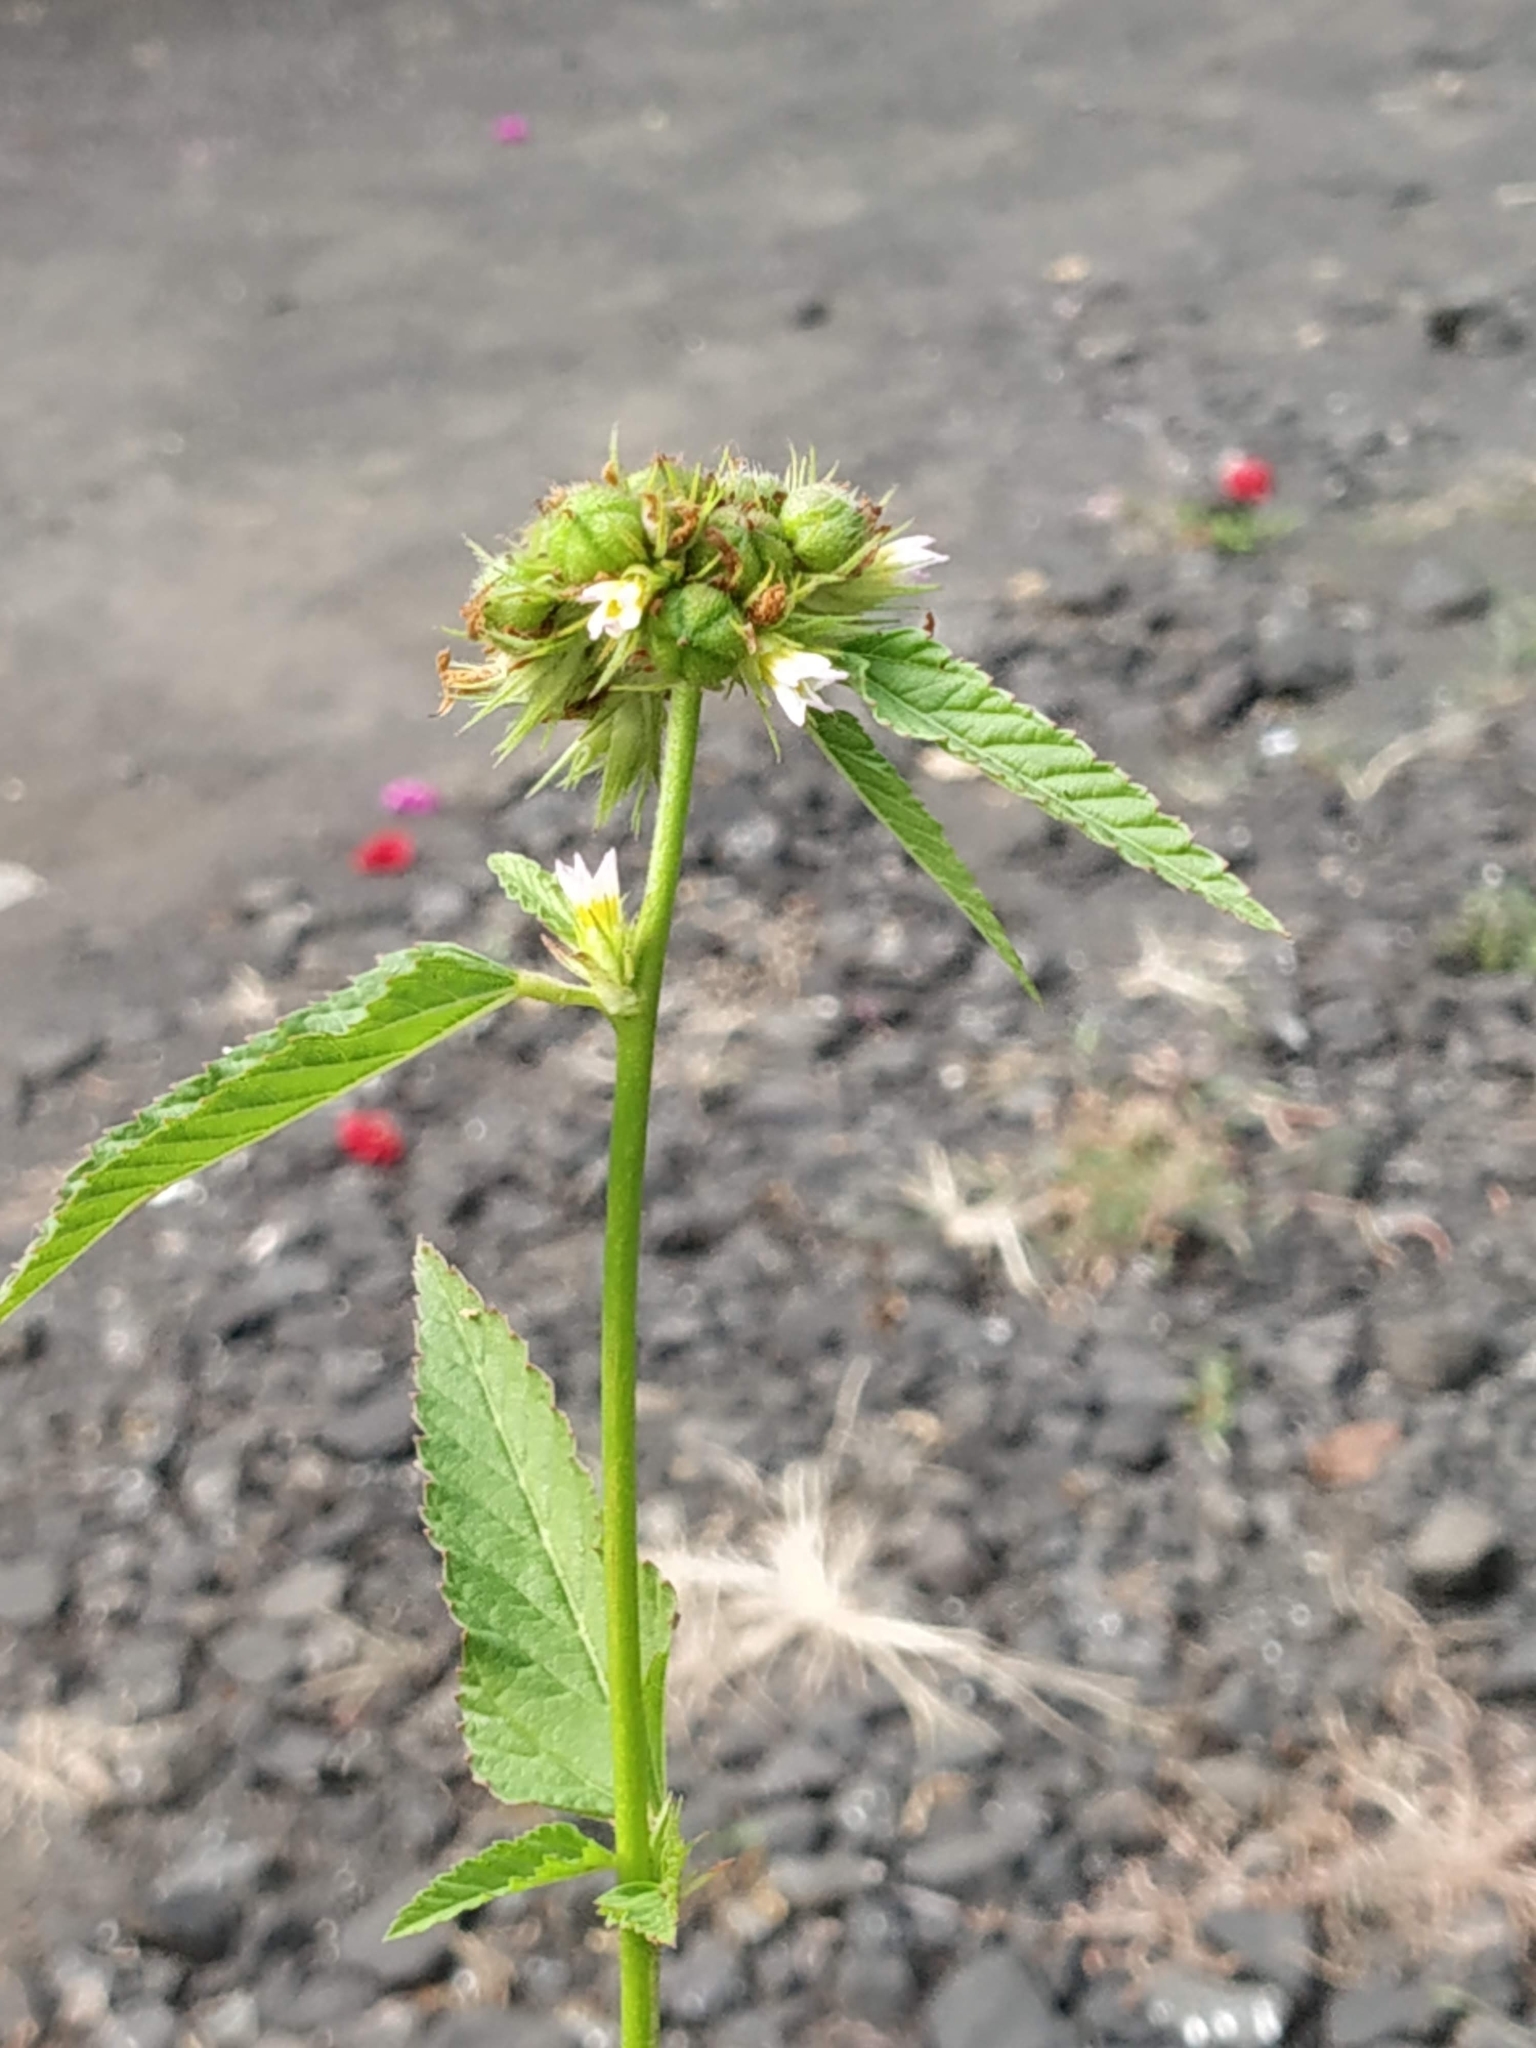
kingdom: Plantae
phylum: Tracheophyta
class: Magnoliopsida
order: Malvales
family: Malvaceae
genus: Melochia
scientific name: Melochia corchorifolia
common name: Chocolateweed
